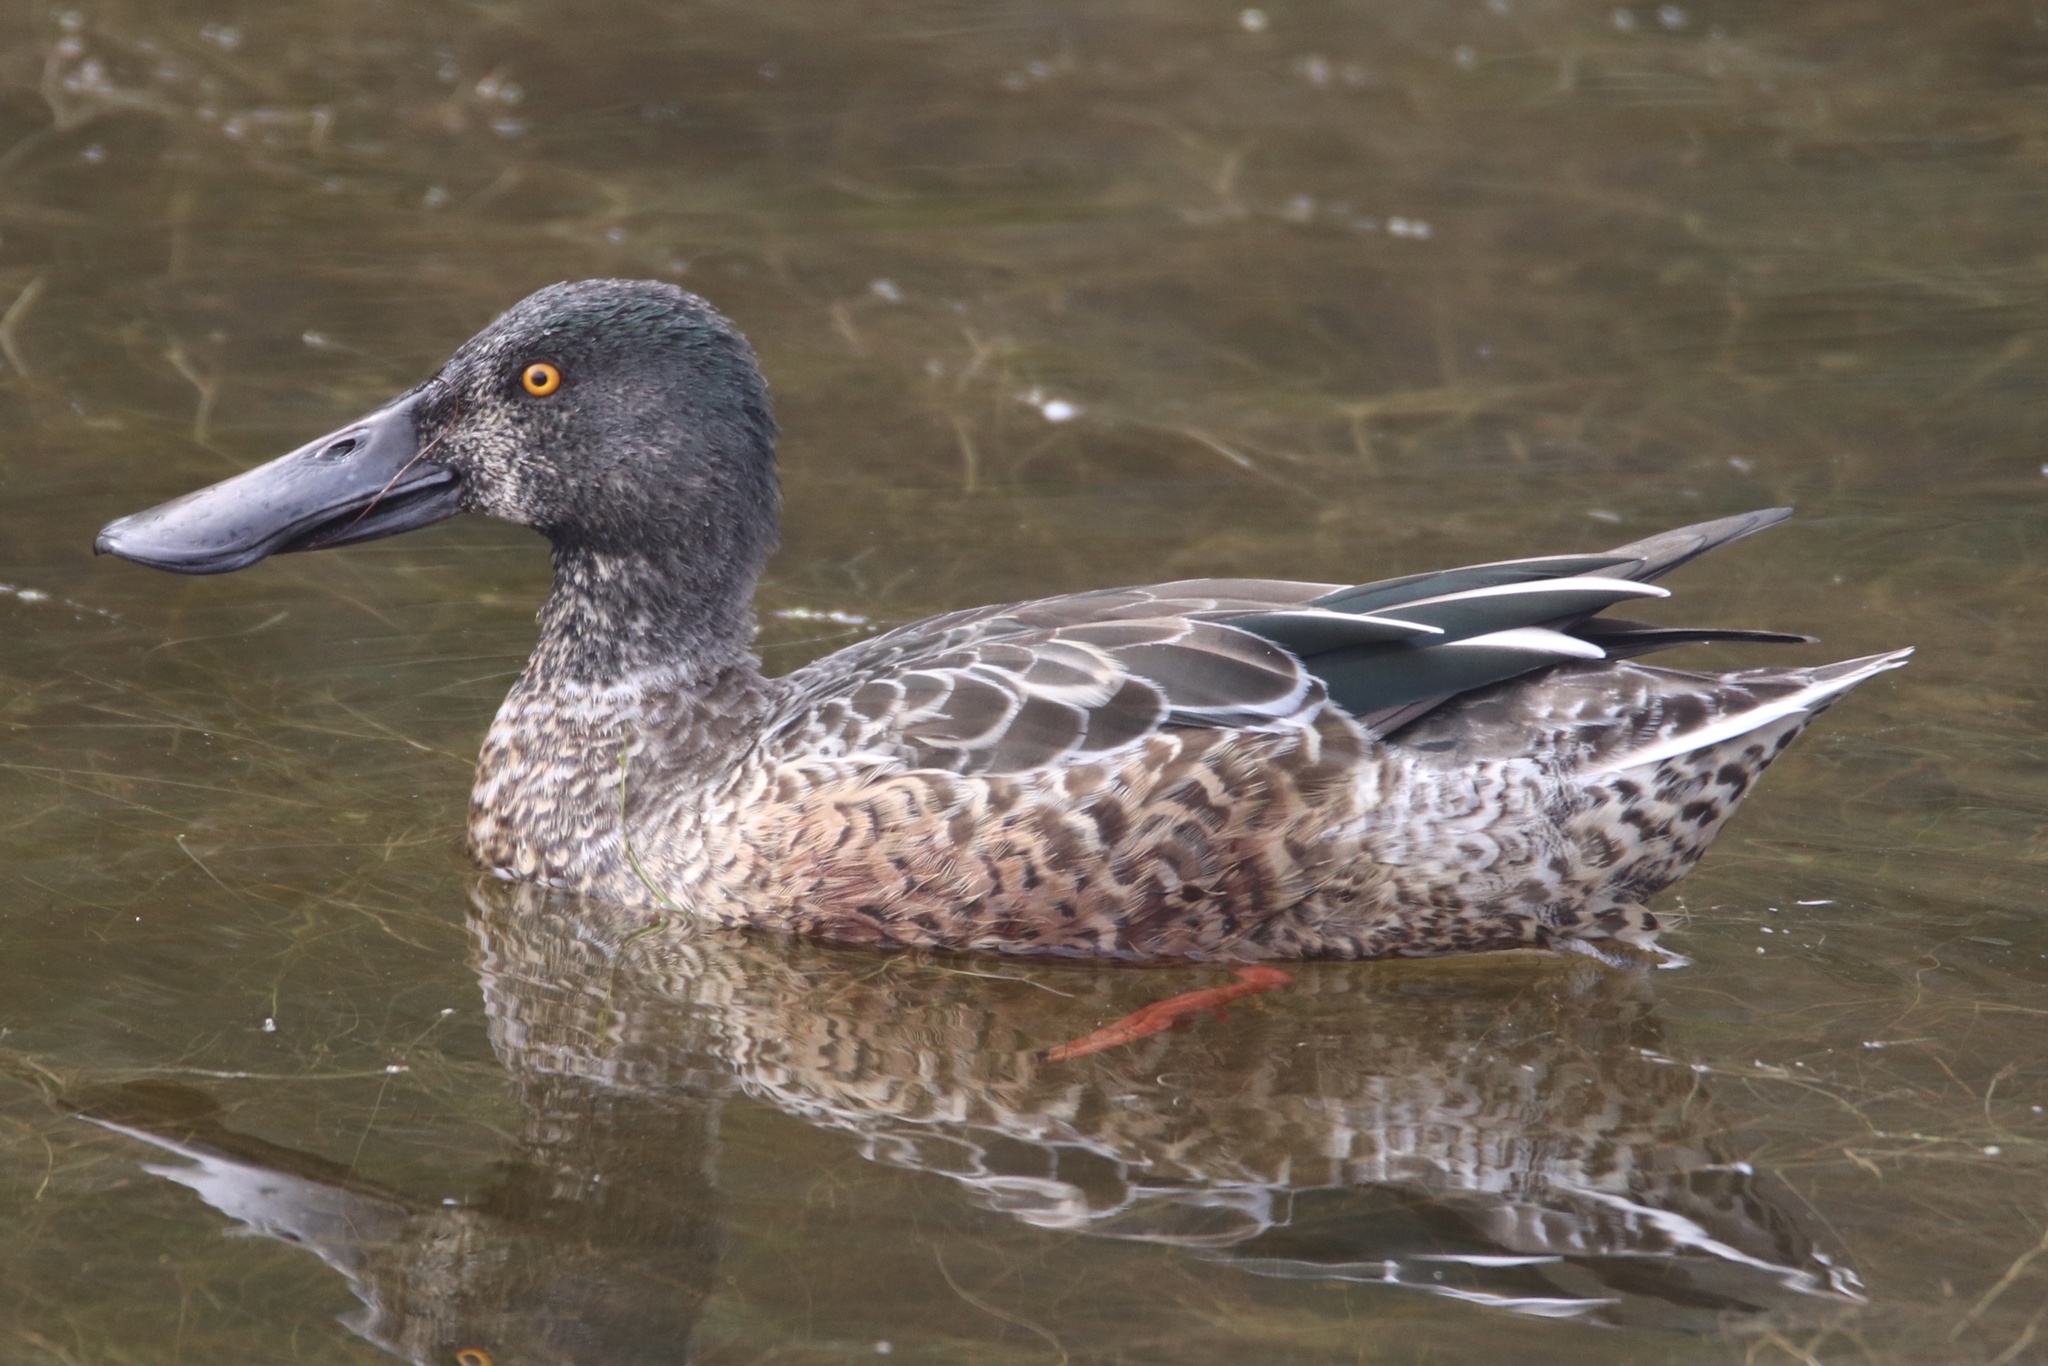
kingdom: Animalia
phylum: Chordata
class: Aves
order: Anseriformes
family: Anatidae
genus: Spatula
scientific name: Spatula clypeata
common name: Northern shoveler
